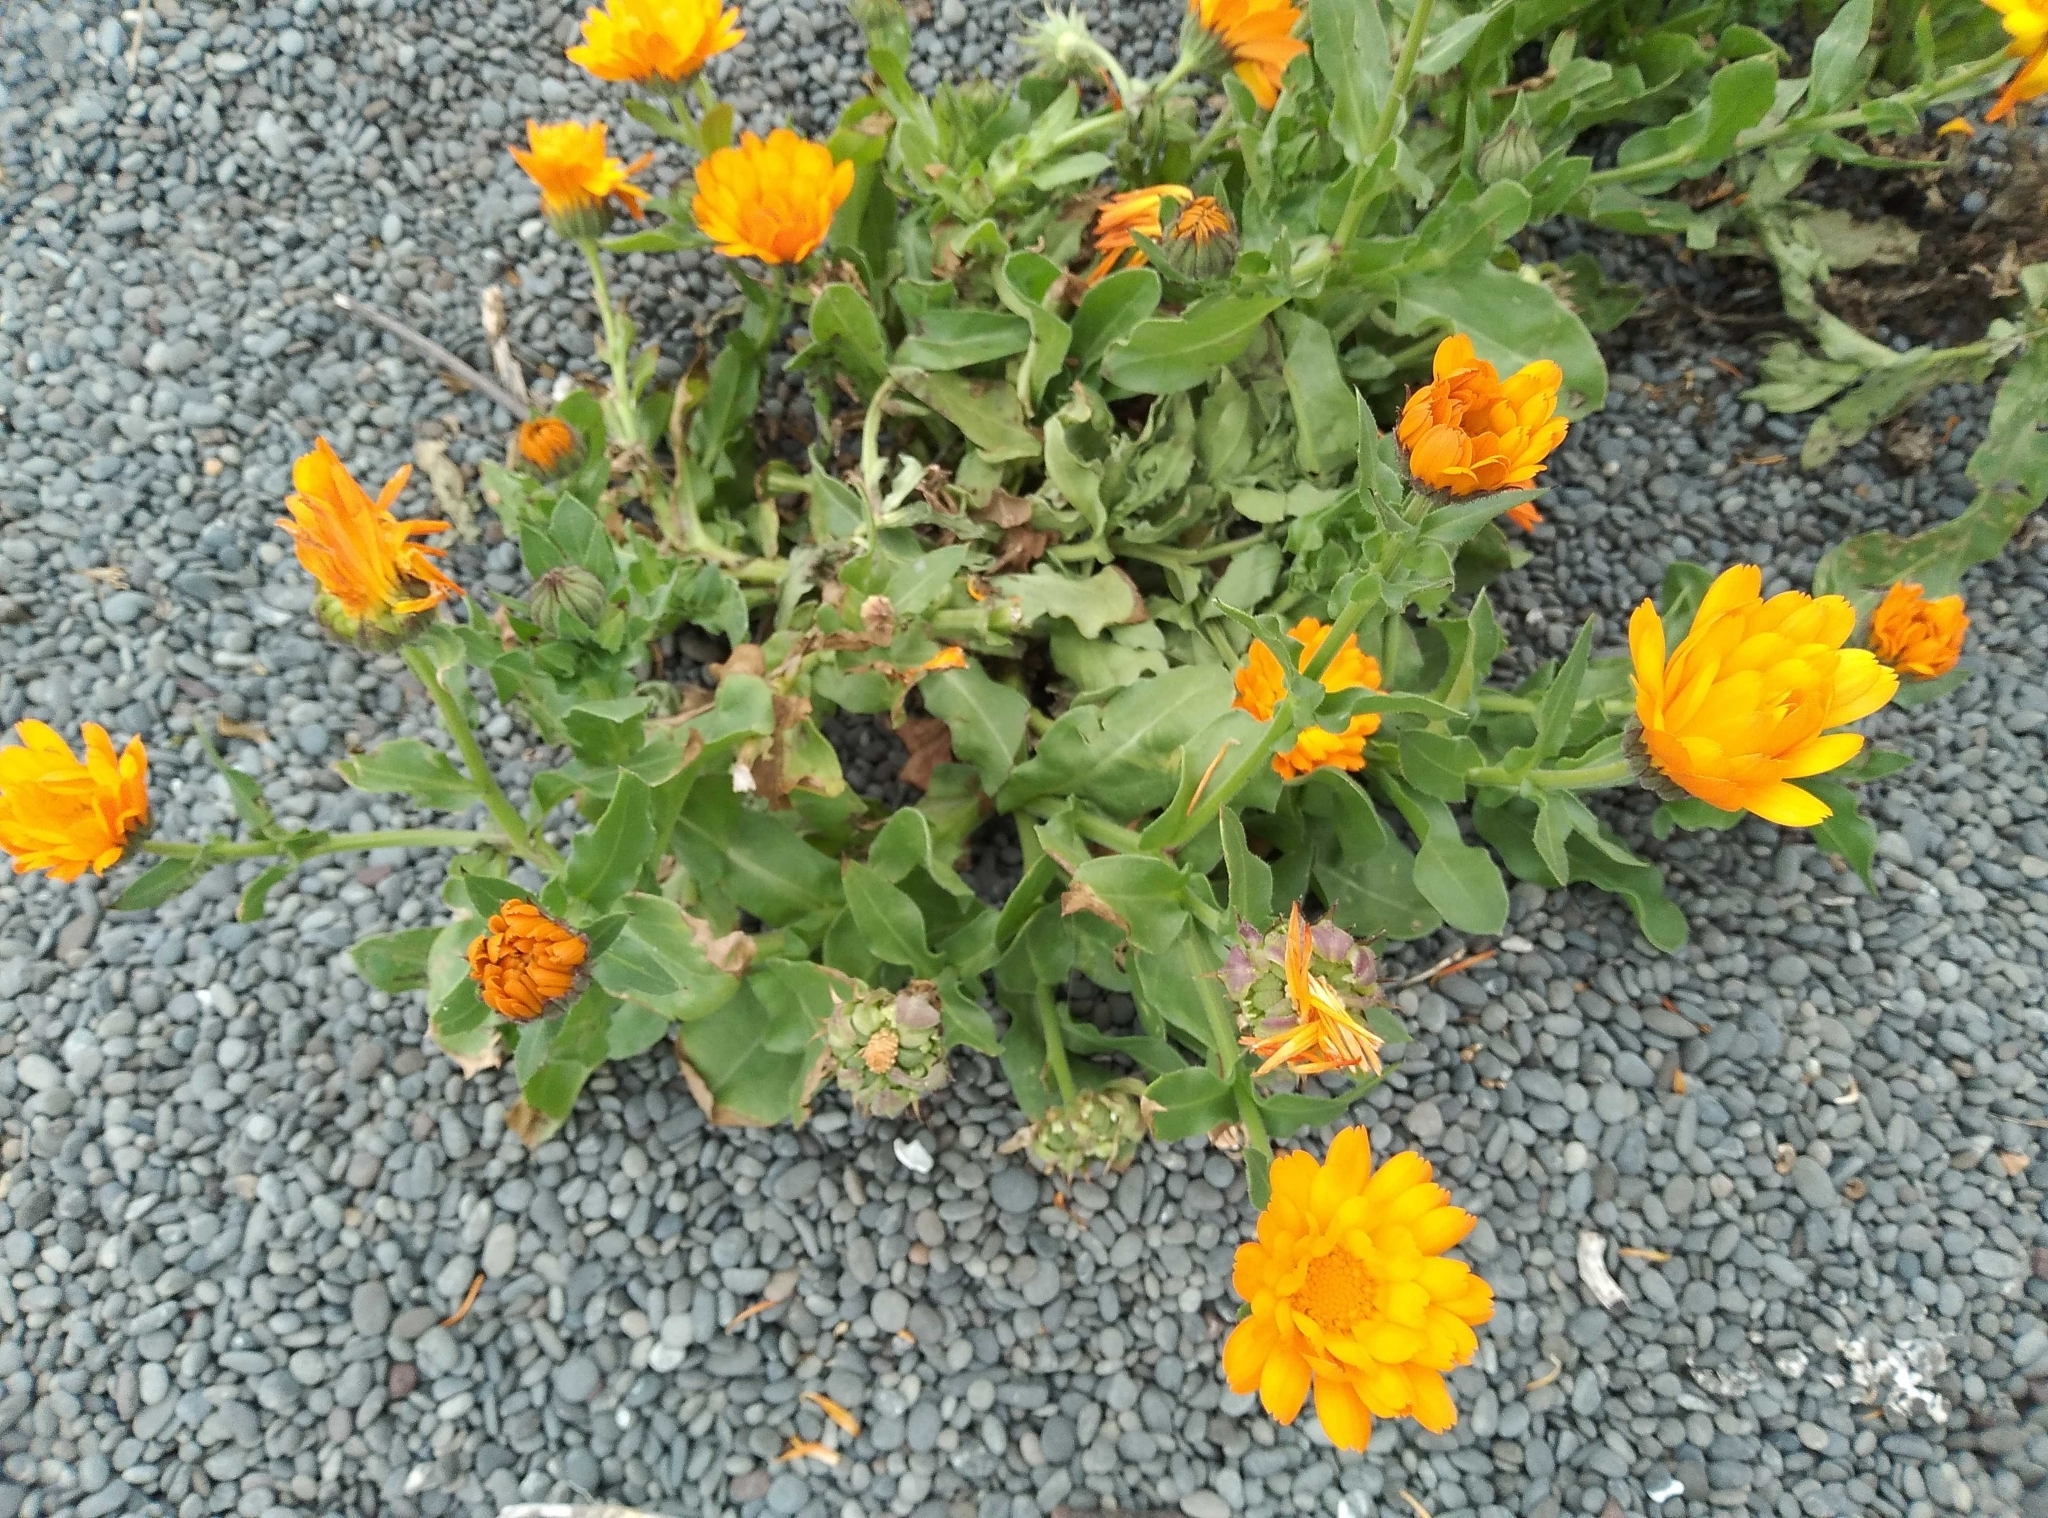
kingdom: Plantae
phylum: Tracheophyta
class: Magnoliopsida
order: Asterales
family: Asteraceae
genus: Calendula
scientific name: Calendula officinalis
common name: Pot marigold
